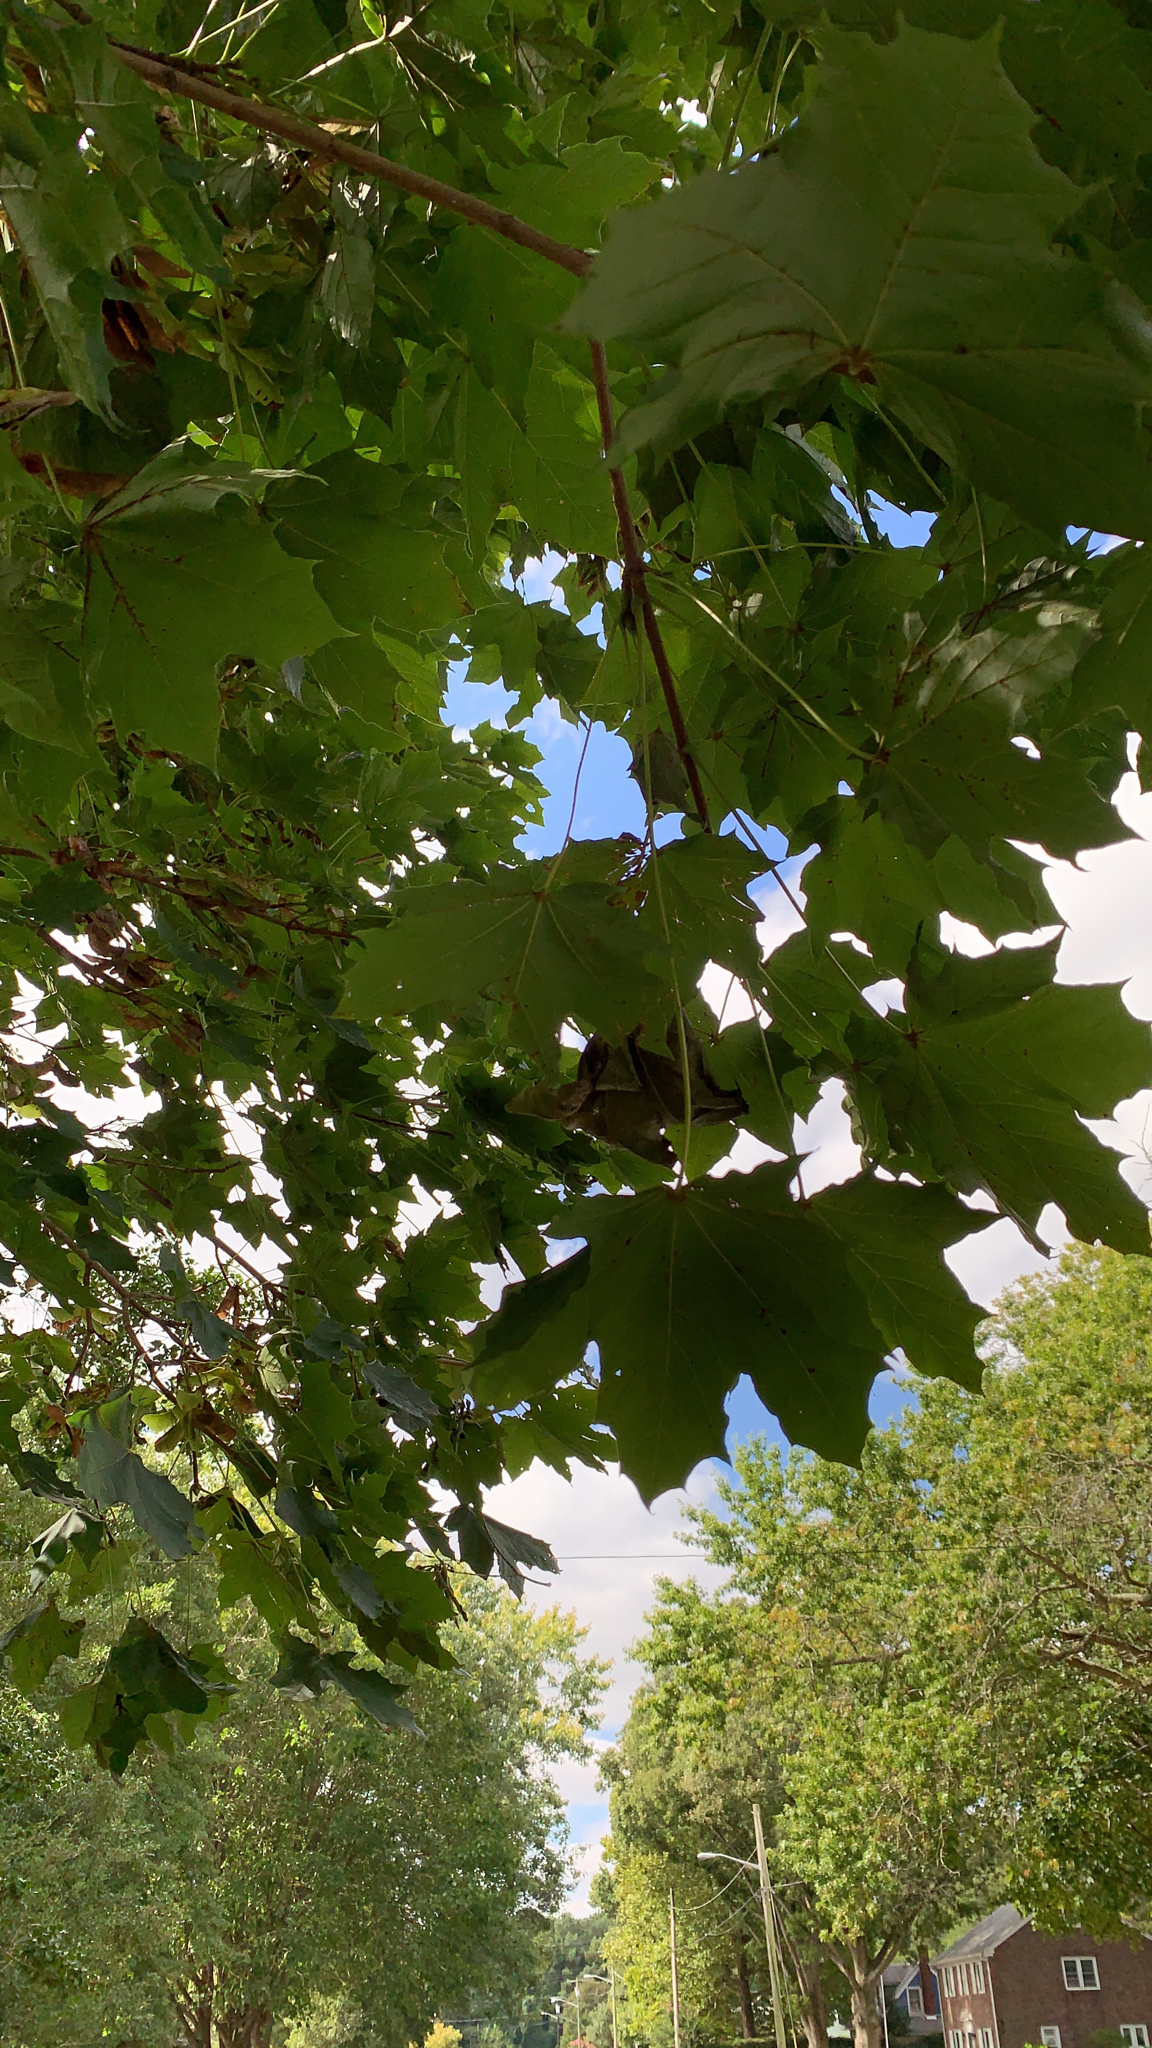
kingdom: Plantae
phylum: Tracheophyta
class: Magnoliopsida
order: Sapindales
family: Sapindaceae
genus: Acer
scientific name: Acer platanoides
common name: Norway maple
